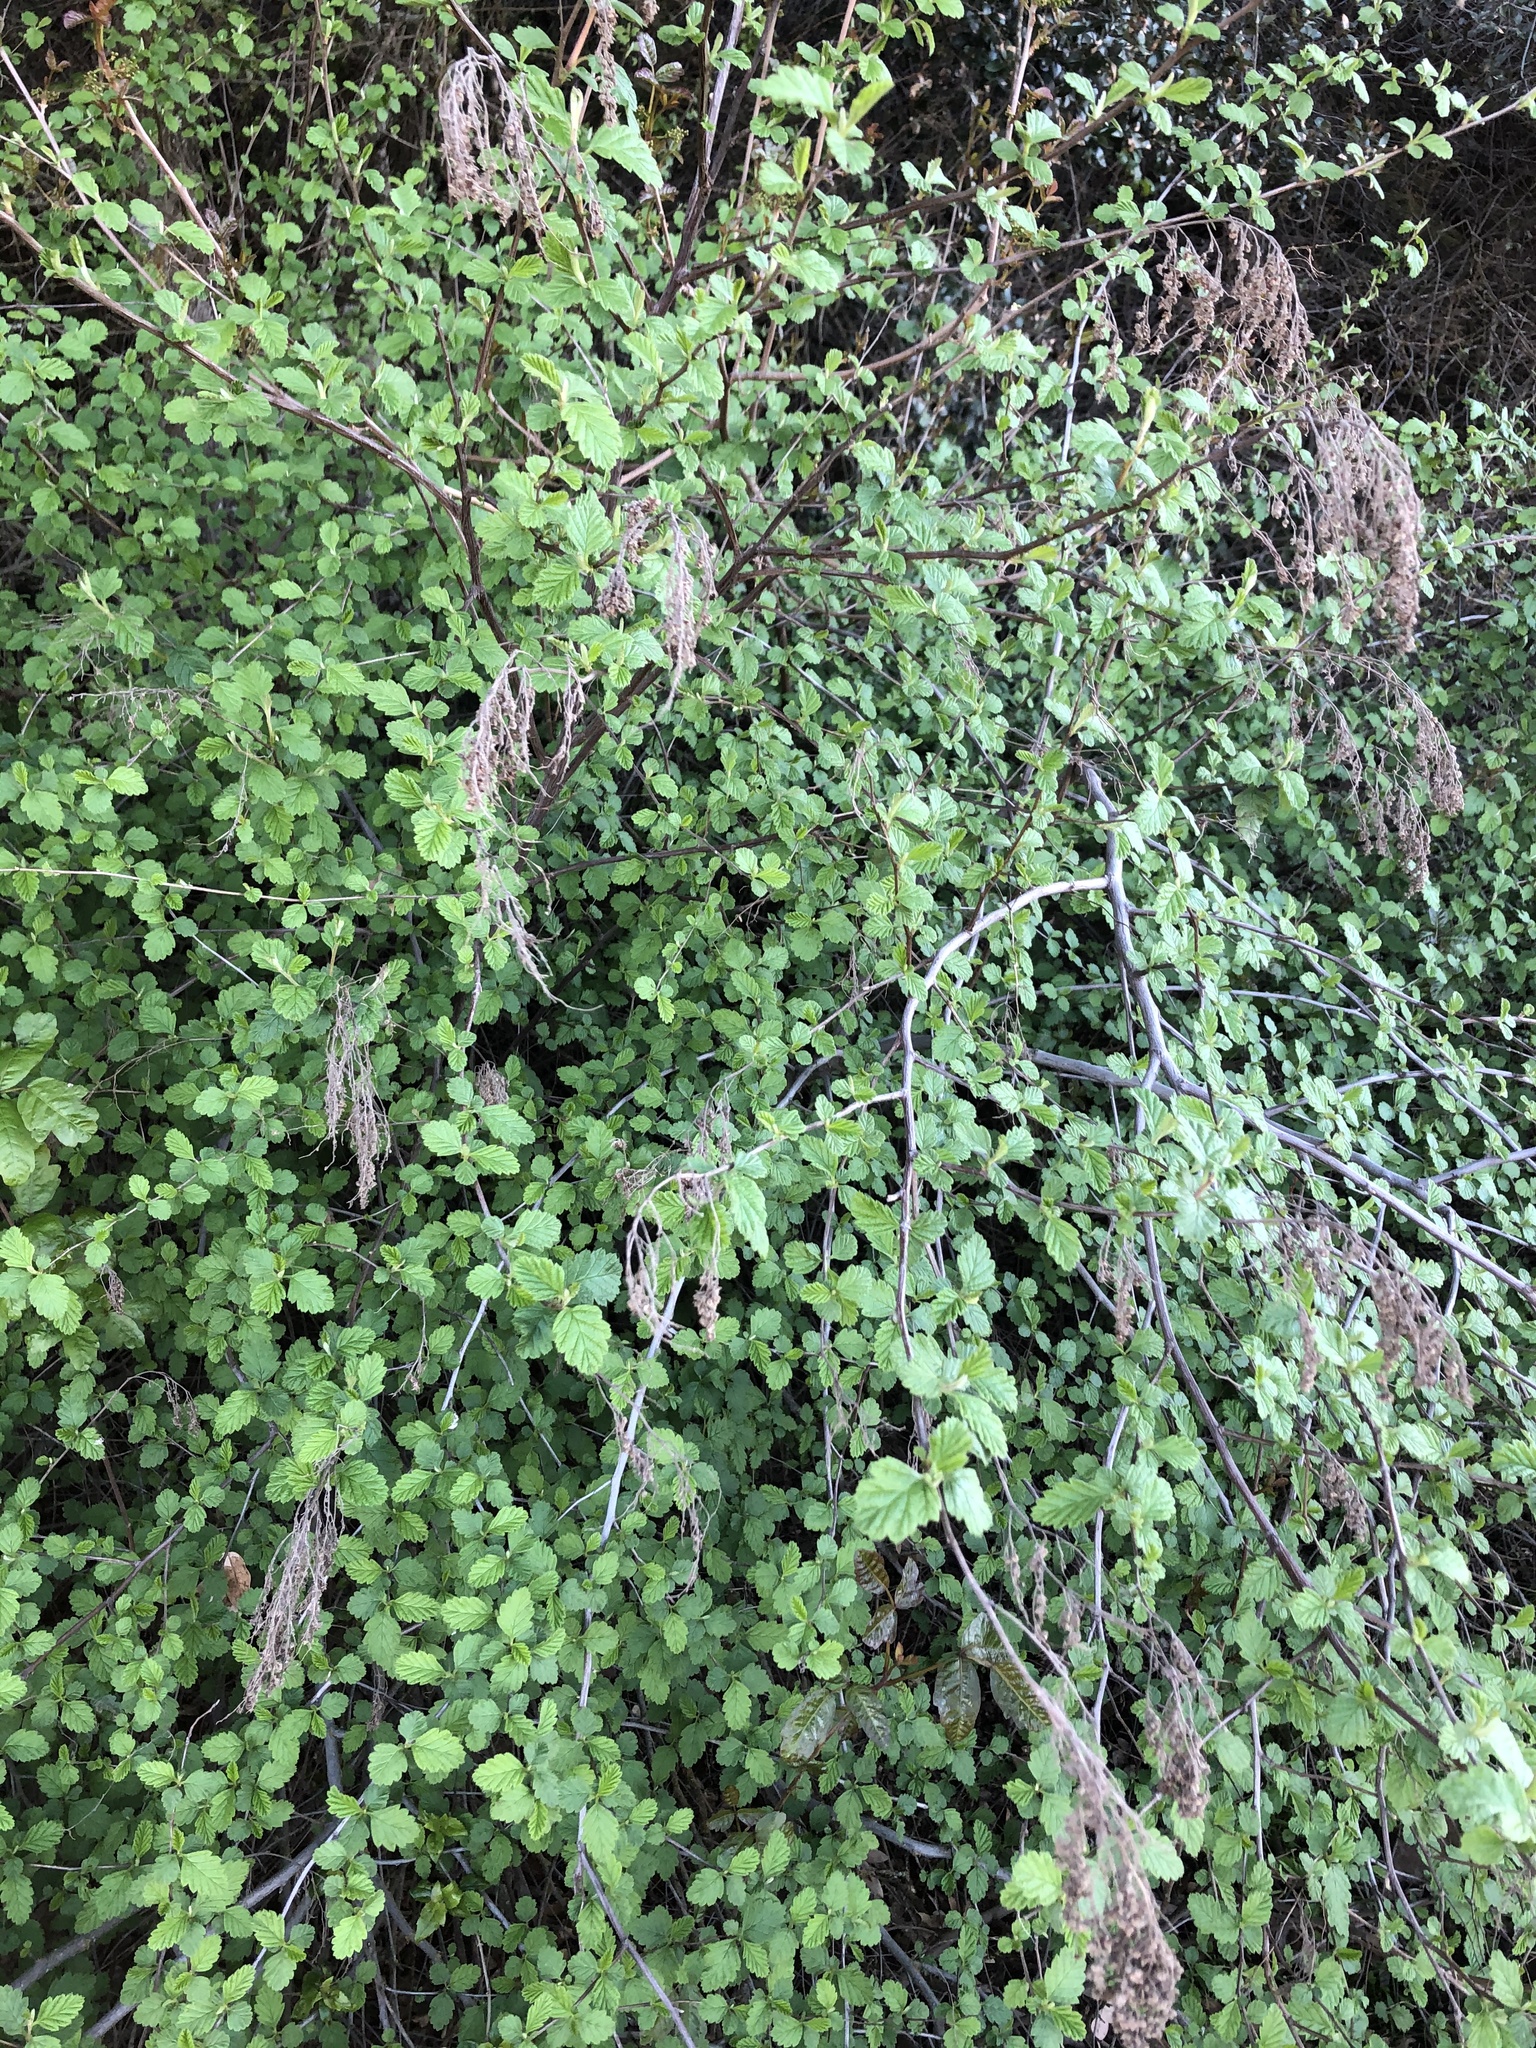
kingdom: Plantae
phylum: Tracheophyta
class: Magnoliopsida
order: Rosales
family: Rosaceae
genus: Holodiscus
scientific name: Holodiscus discolor
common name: Oceanspray
